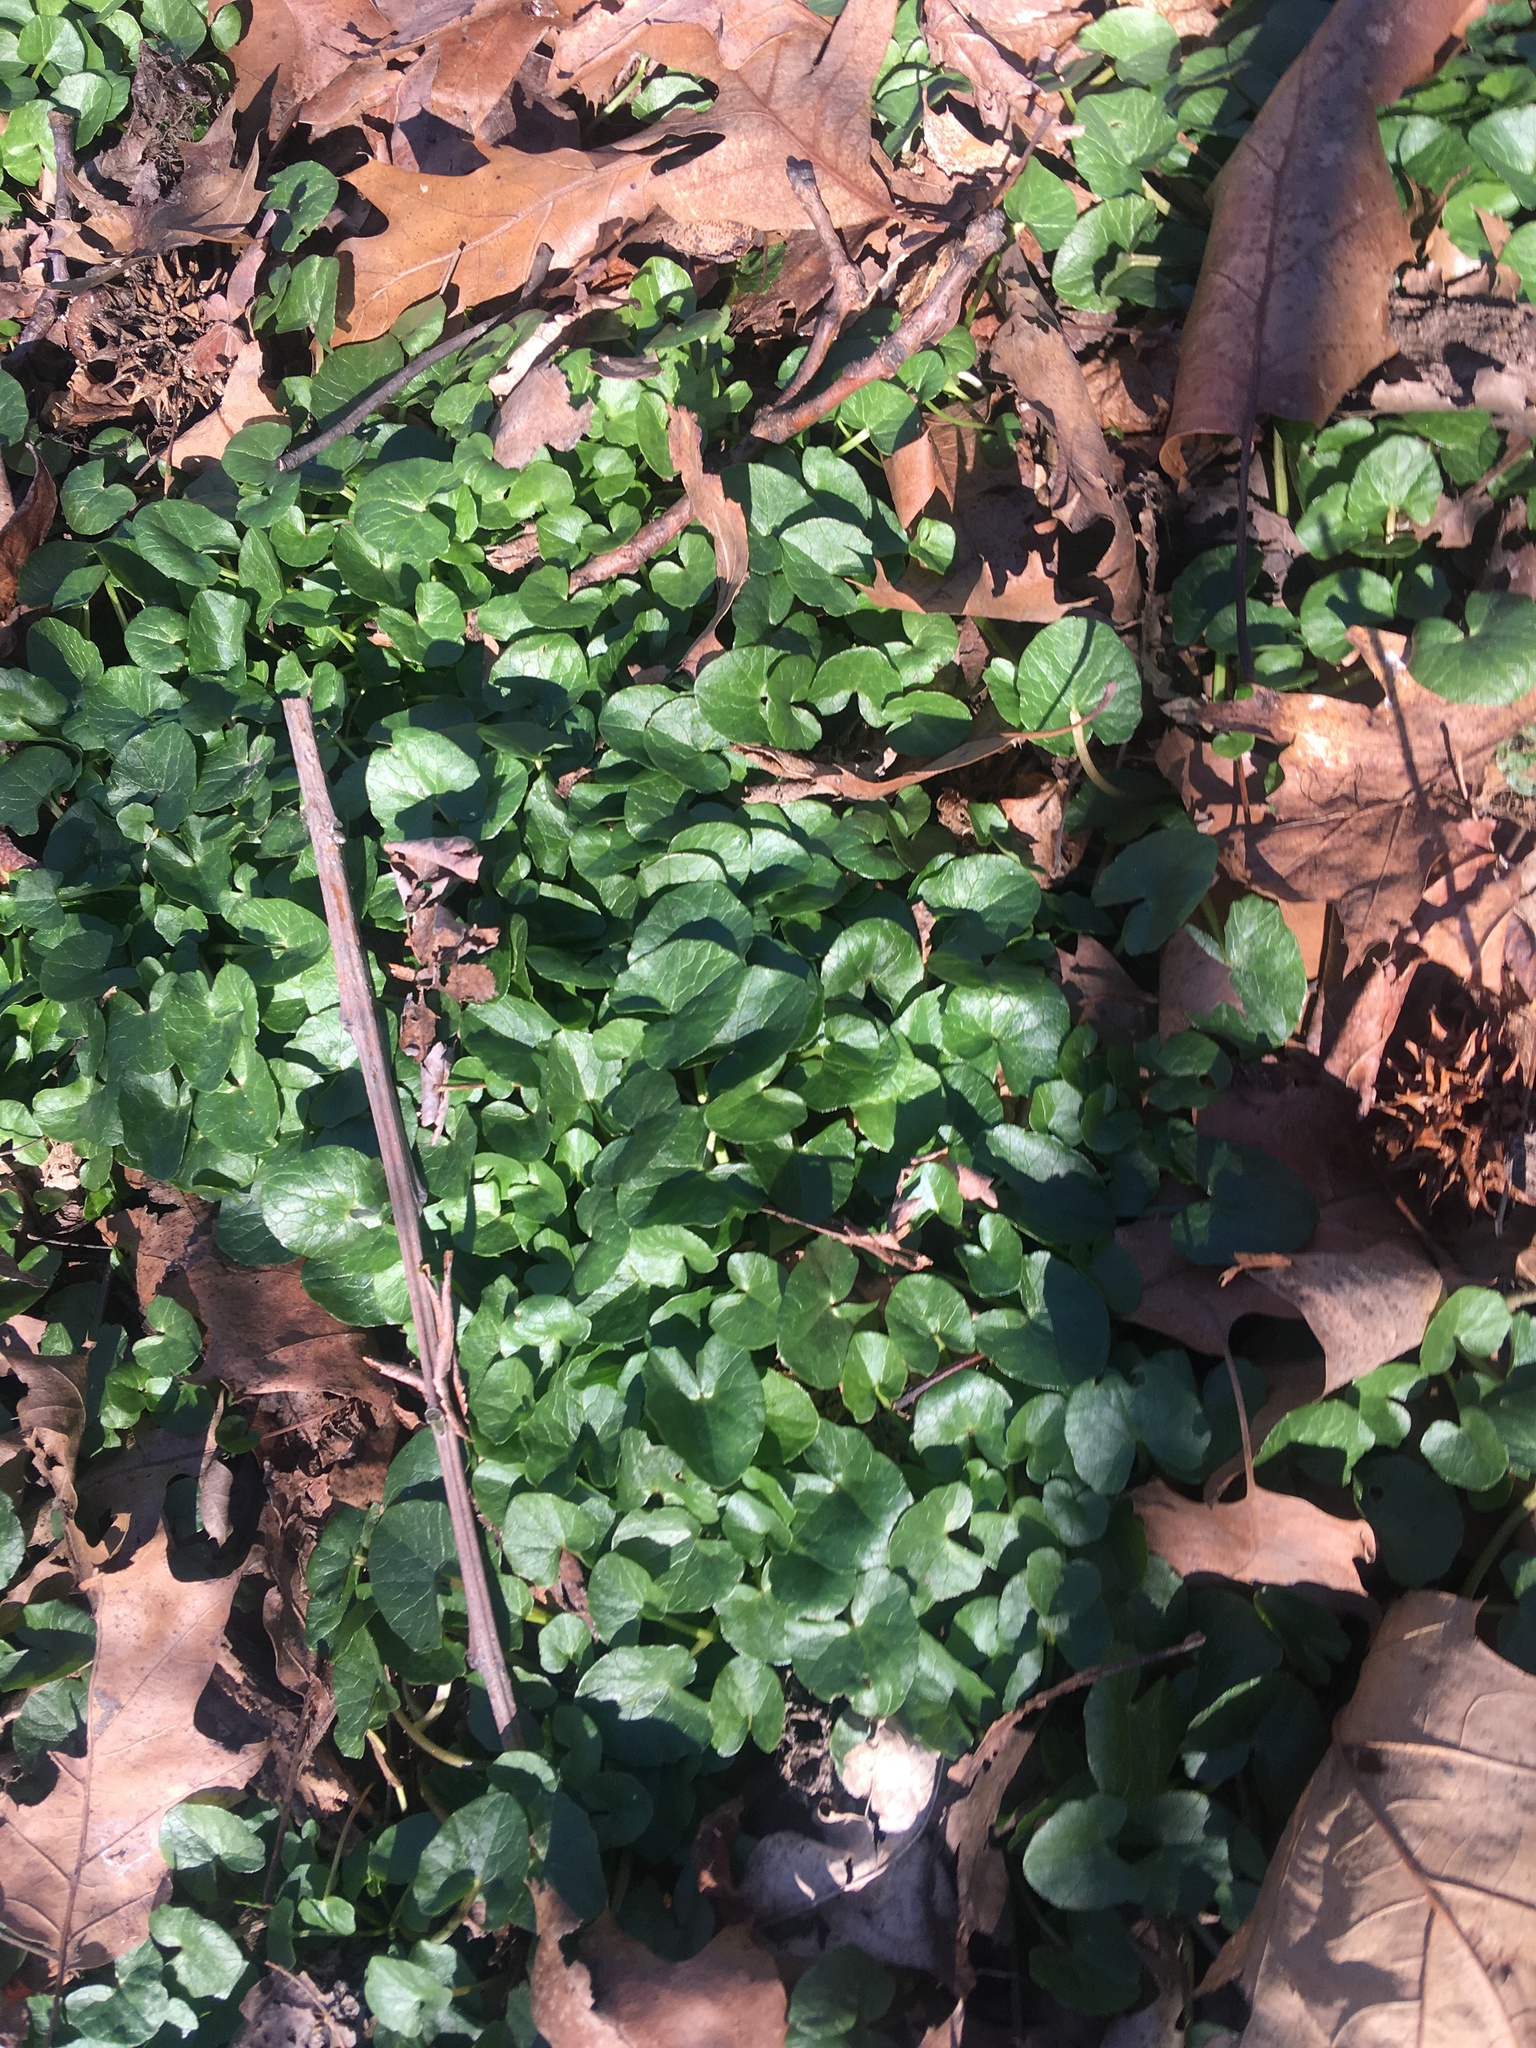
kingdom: Plantae
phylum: Tracheophyta
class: Magnoliopsida
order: Ranunculales
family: Ranunculaceae
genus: Ficaria
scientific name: Ficaria verna
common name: Lesser celandine
